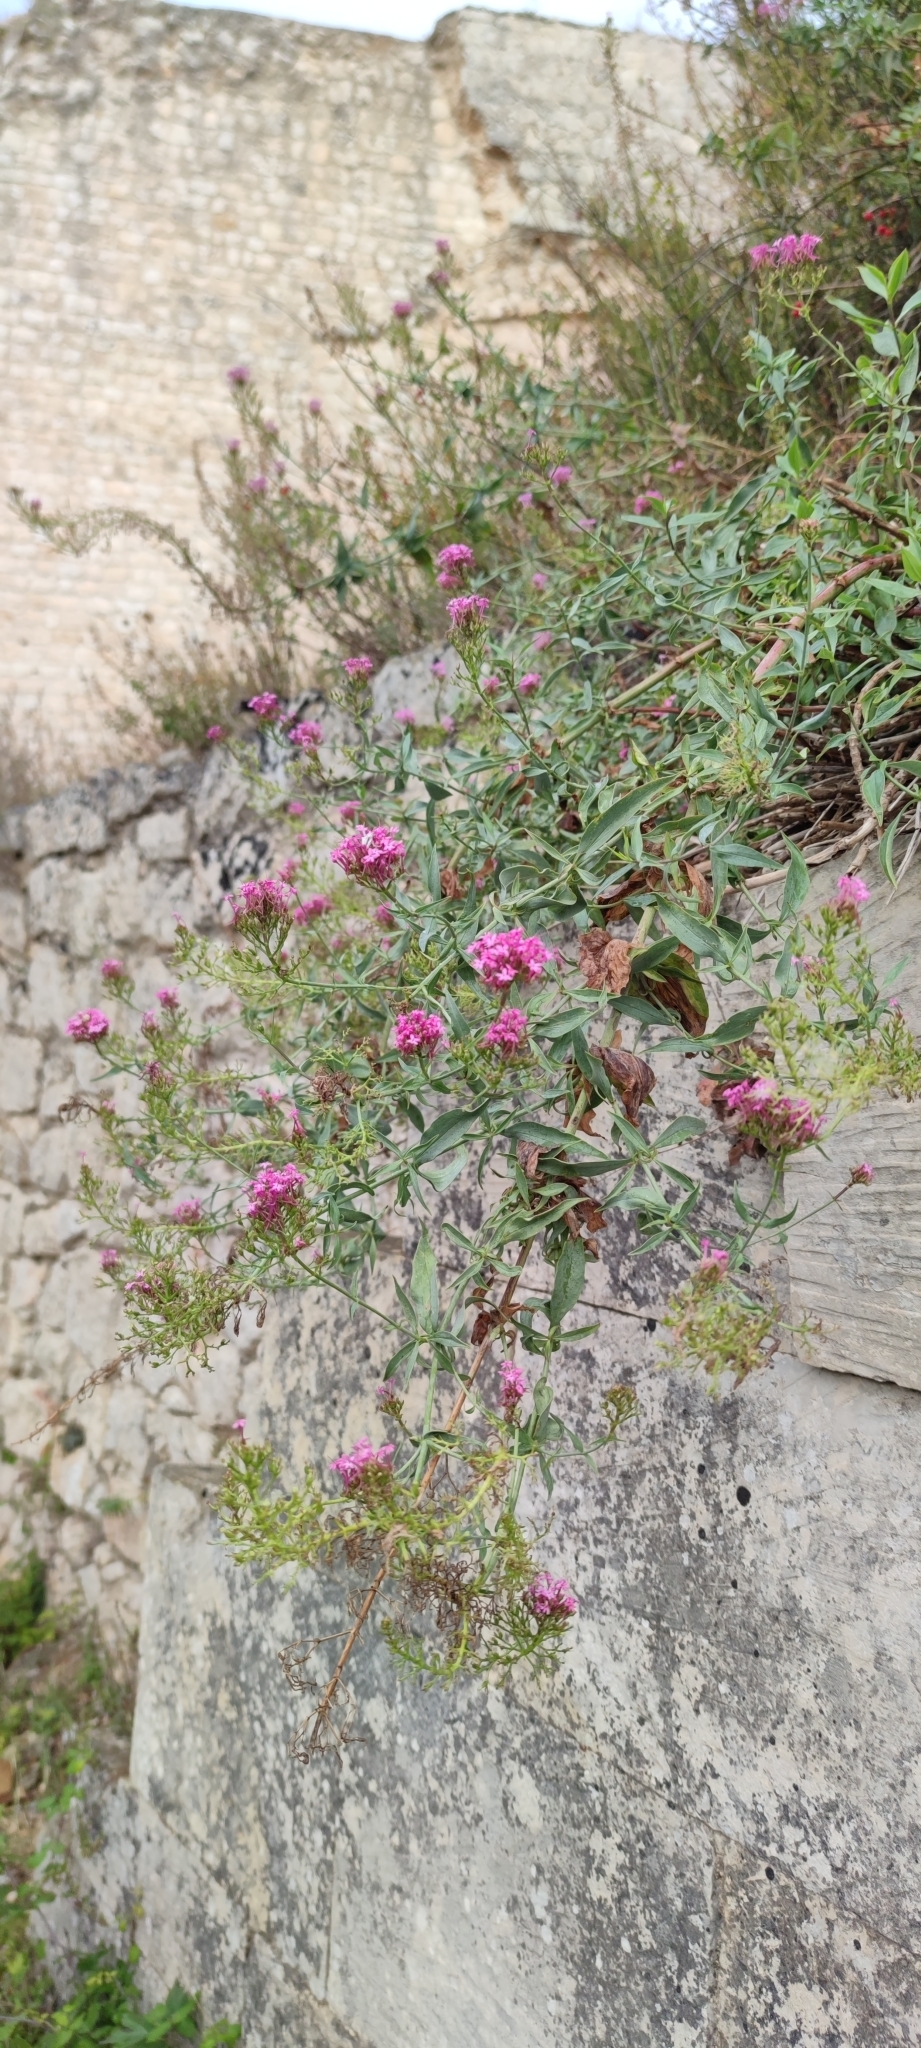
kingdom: Plantae
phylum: Tracheophyta
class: Magnoliopsida
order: Dipsacales
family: Caprifoliaceae
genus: Centranthus
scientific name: Centranthus ruber
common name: Red valerian
